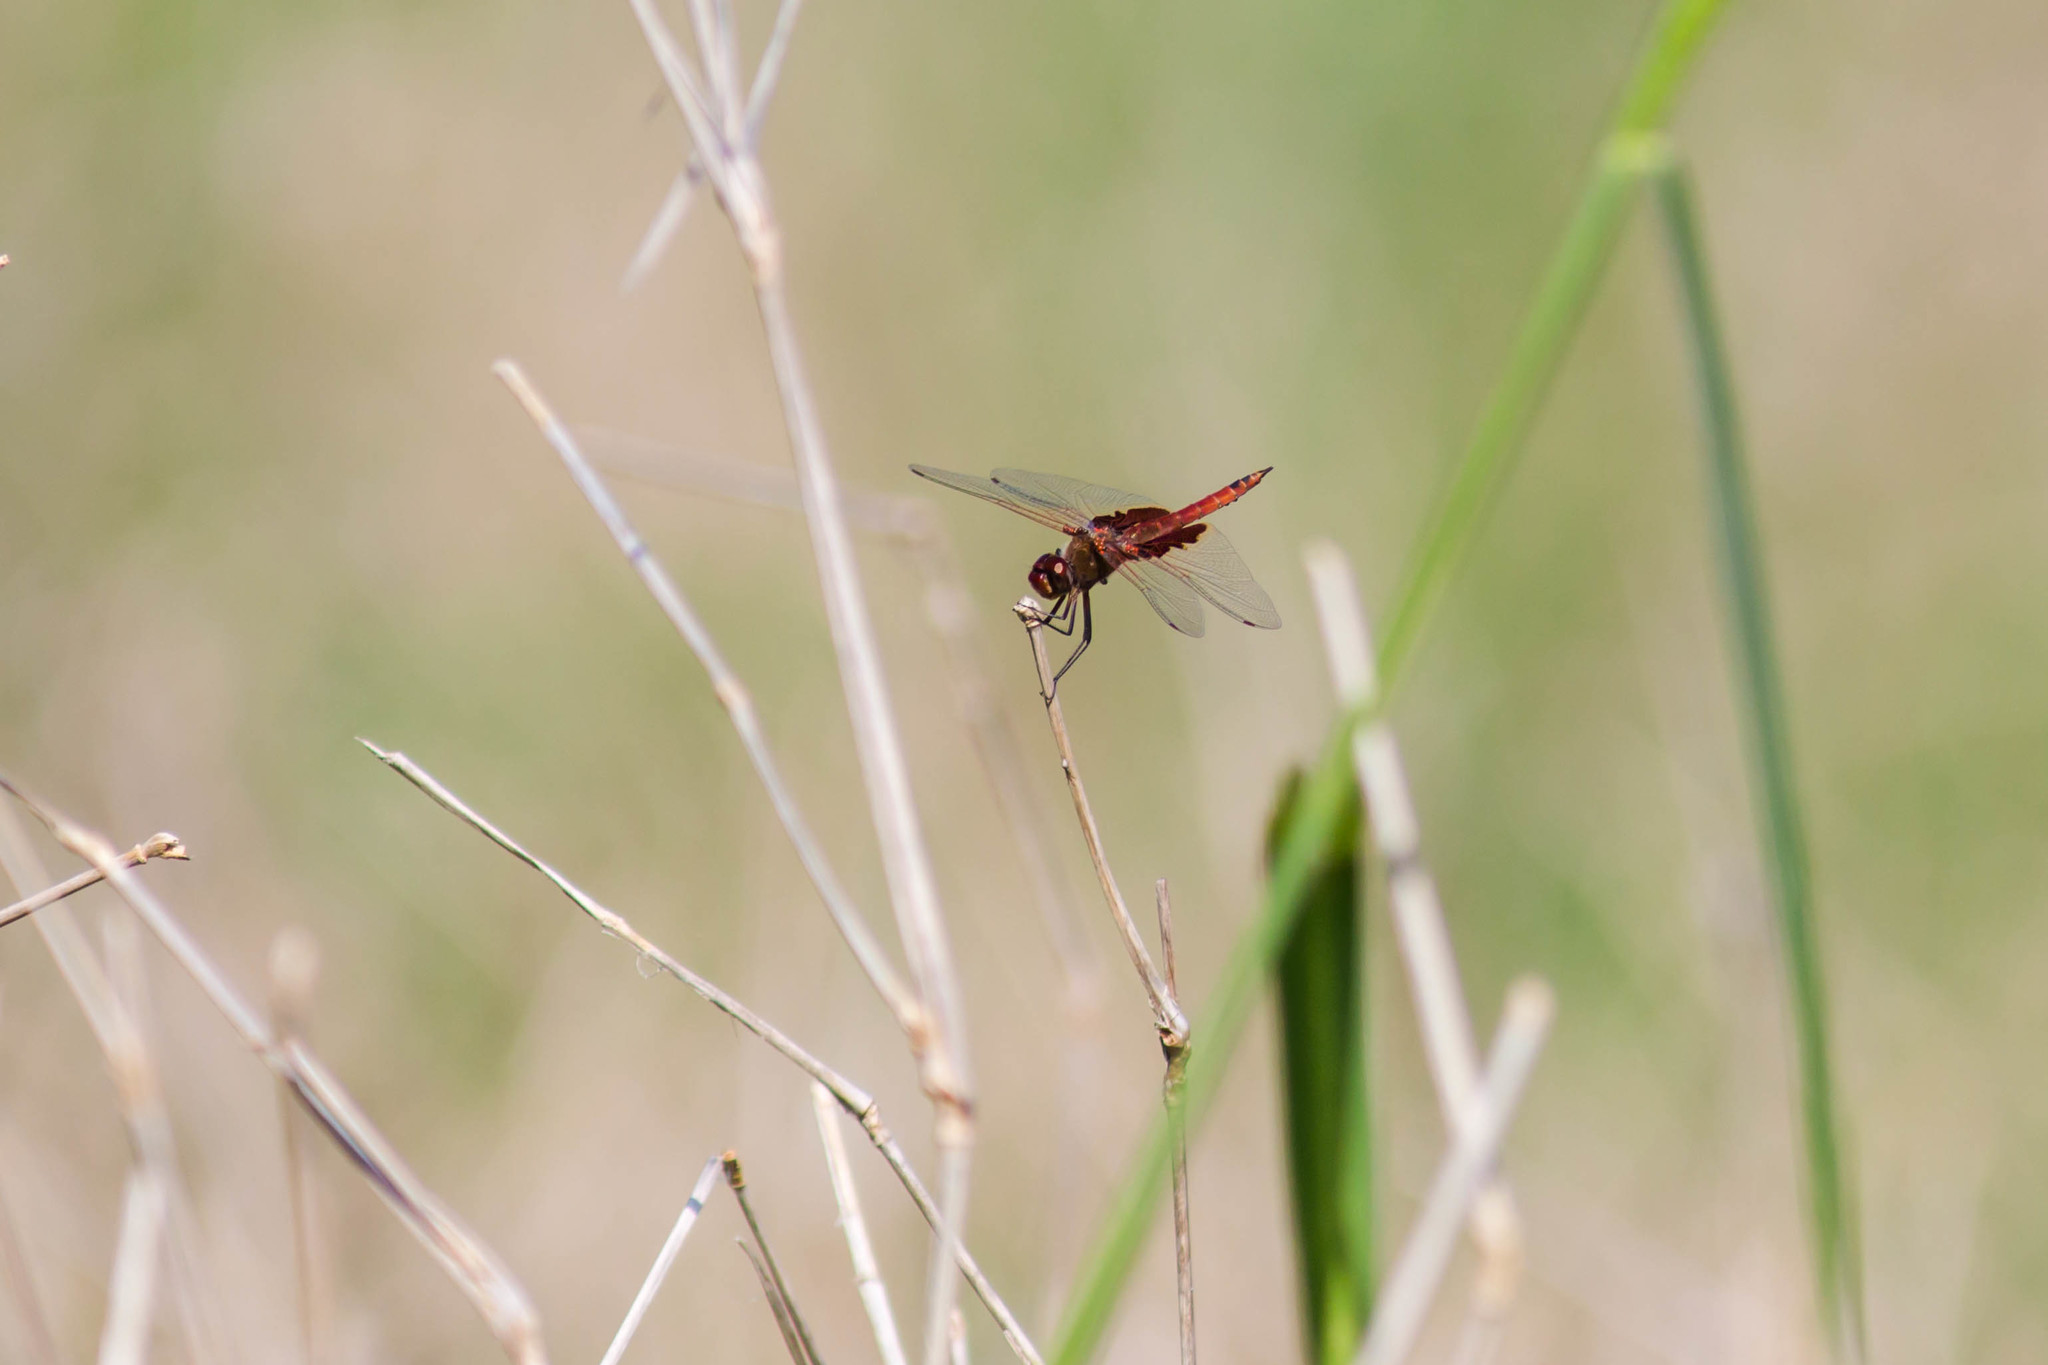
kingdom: Animalia
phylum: Arthropoda
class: Insecta
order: Odonata
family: Libellulidae
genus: Tramea
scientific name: Tramea onusta
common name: Red saddlebags
